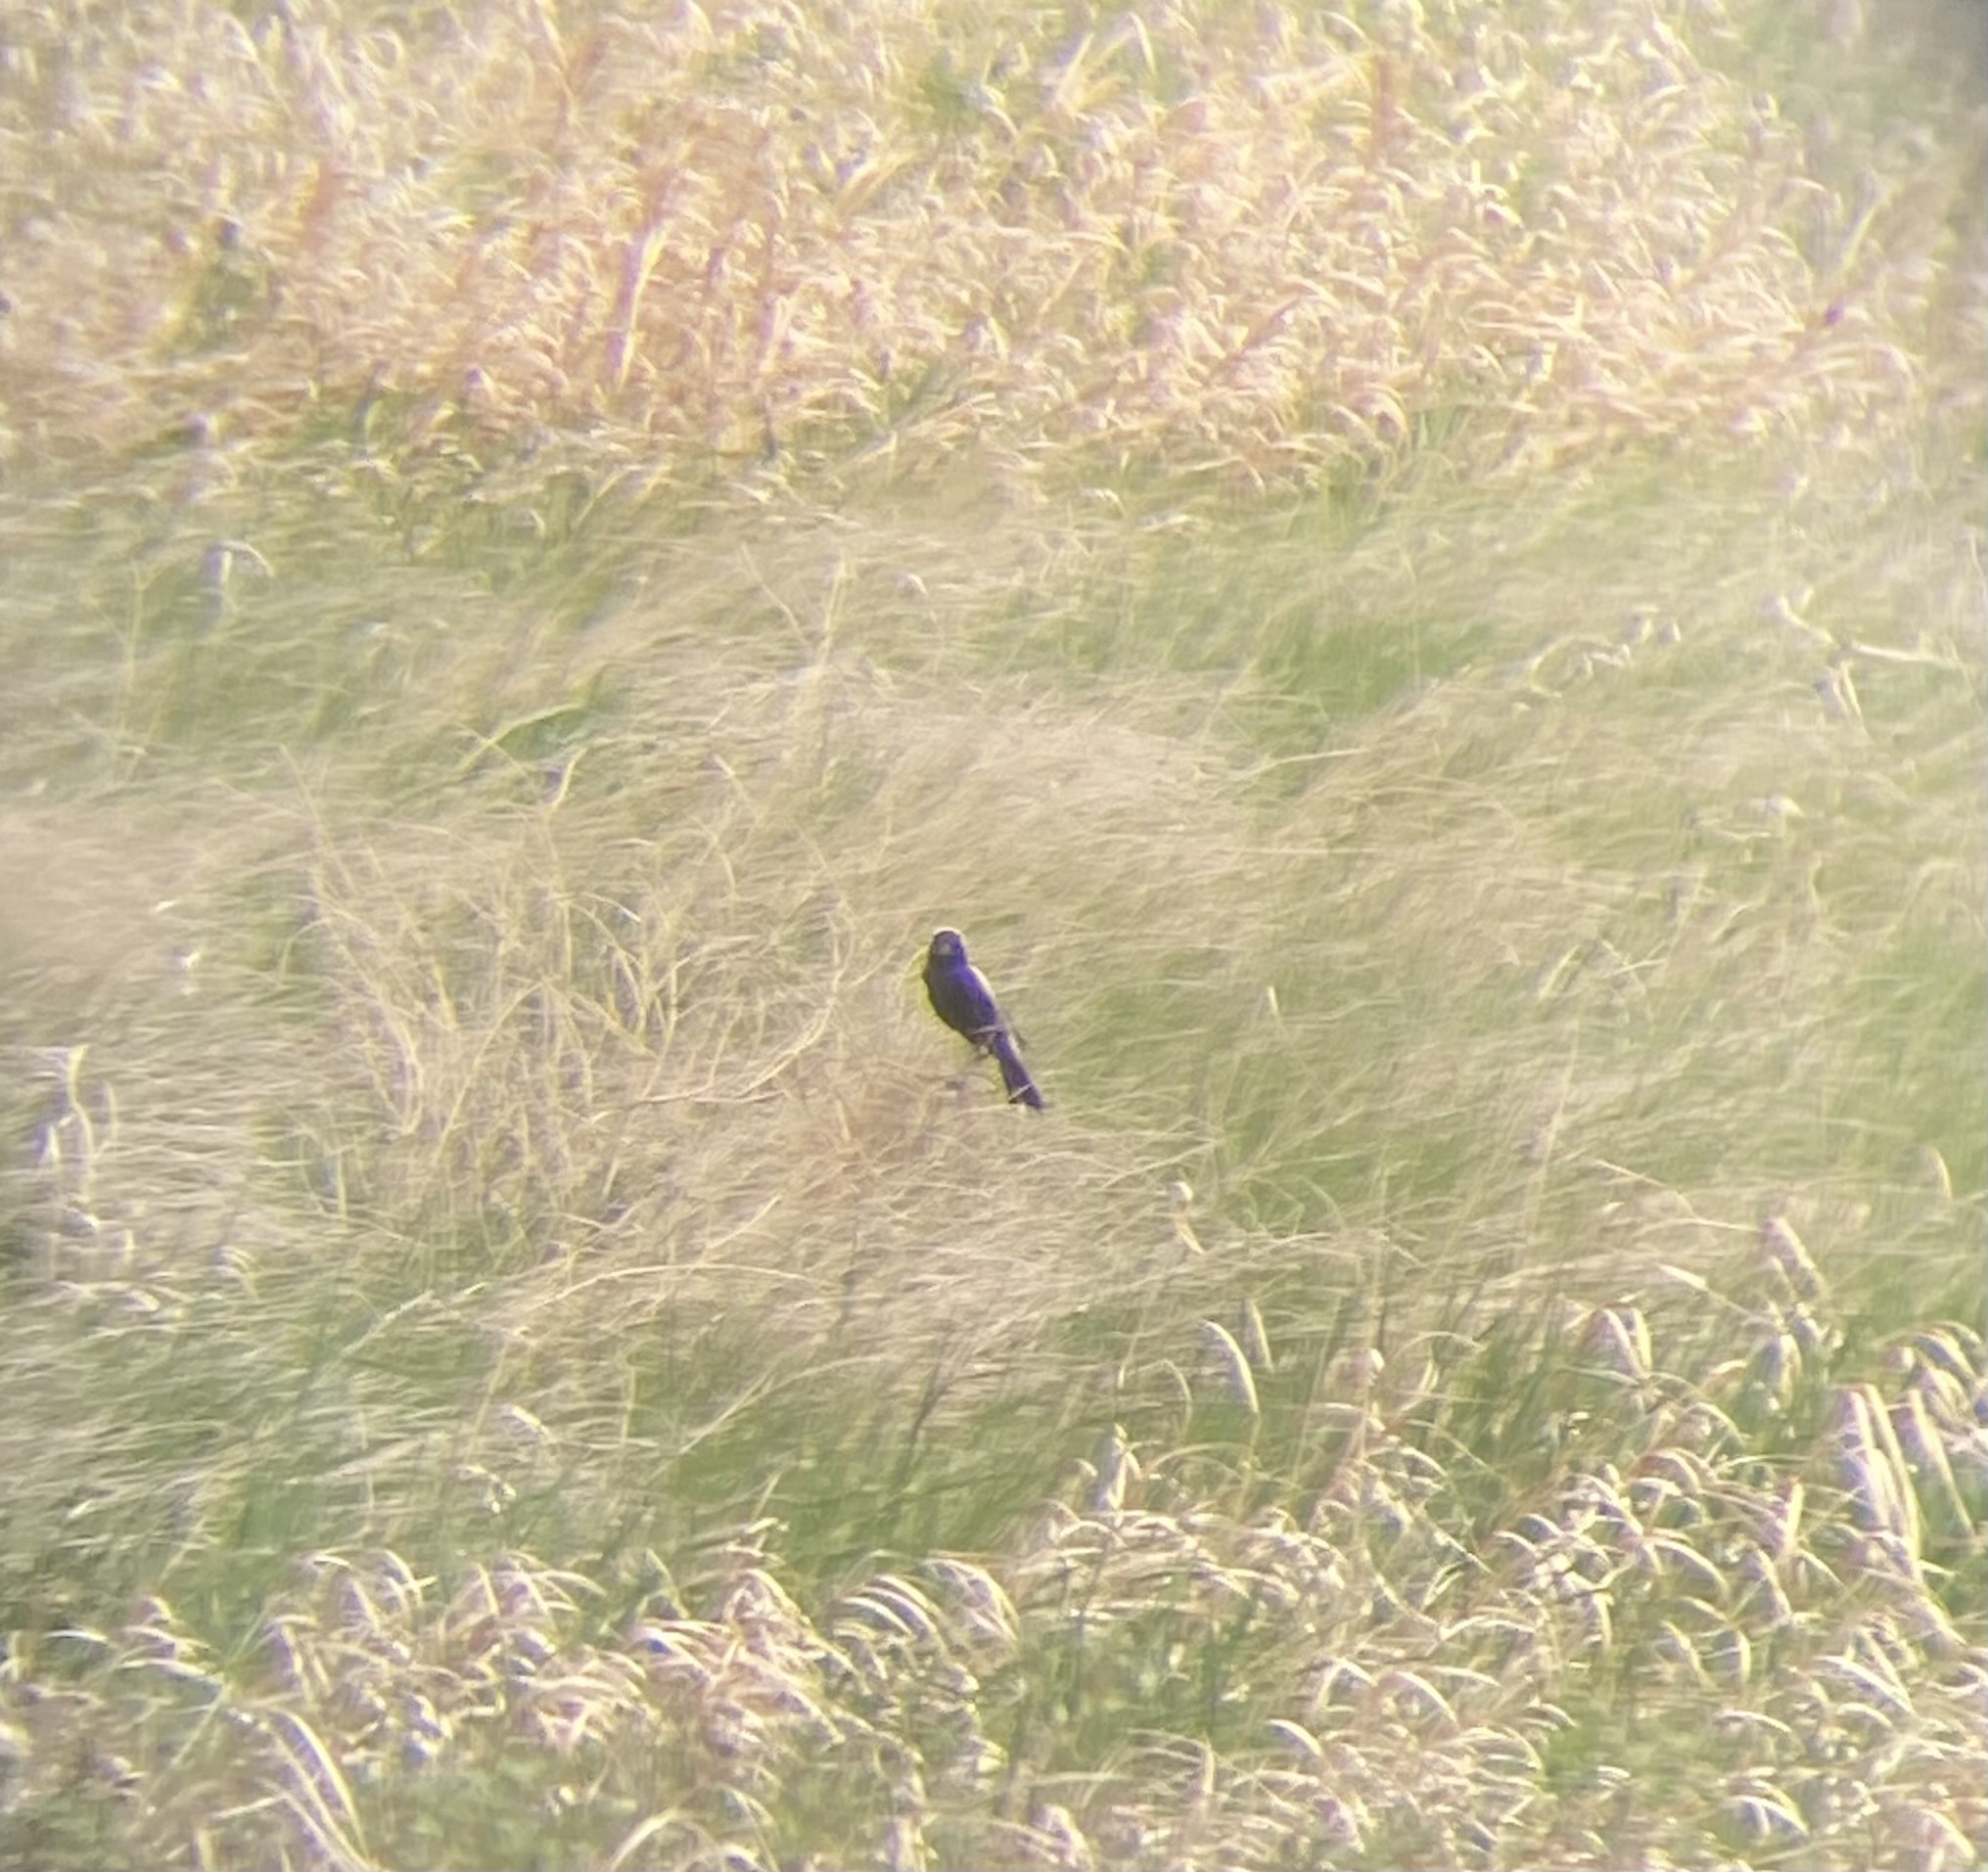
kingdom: Animalia
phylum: Chordata
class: Aves
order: Passeriformes
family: Icteridae
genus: Dolichonyx
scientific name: Dolichonyx oryzivorus
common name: Bobolink
